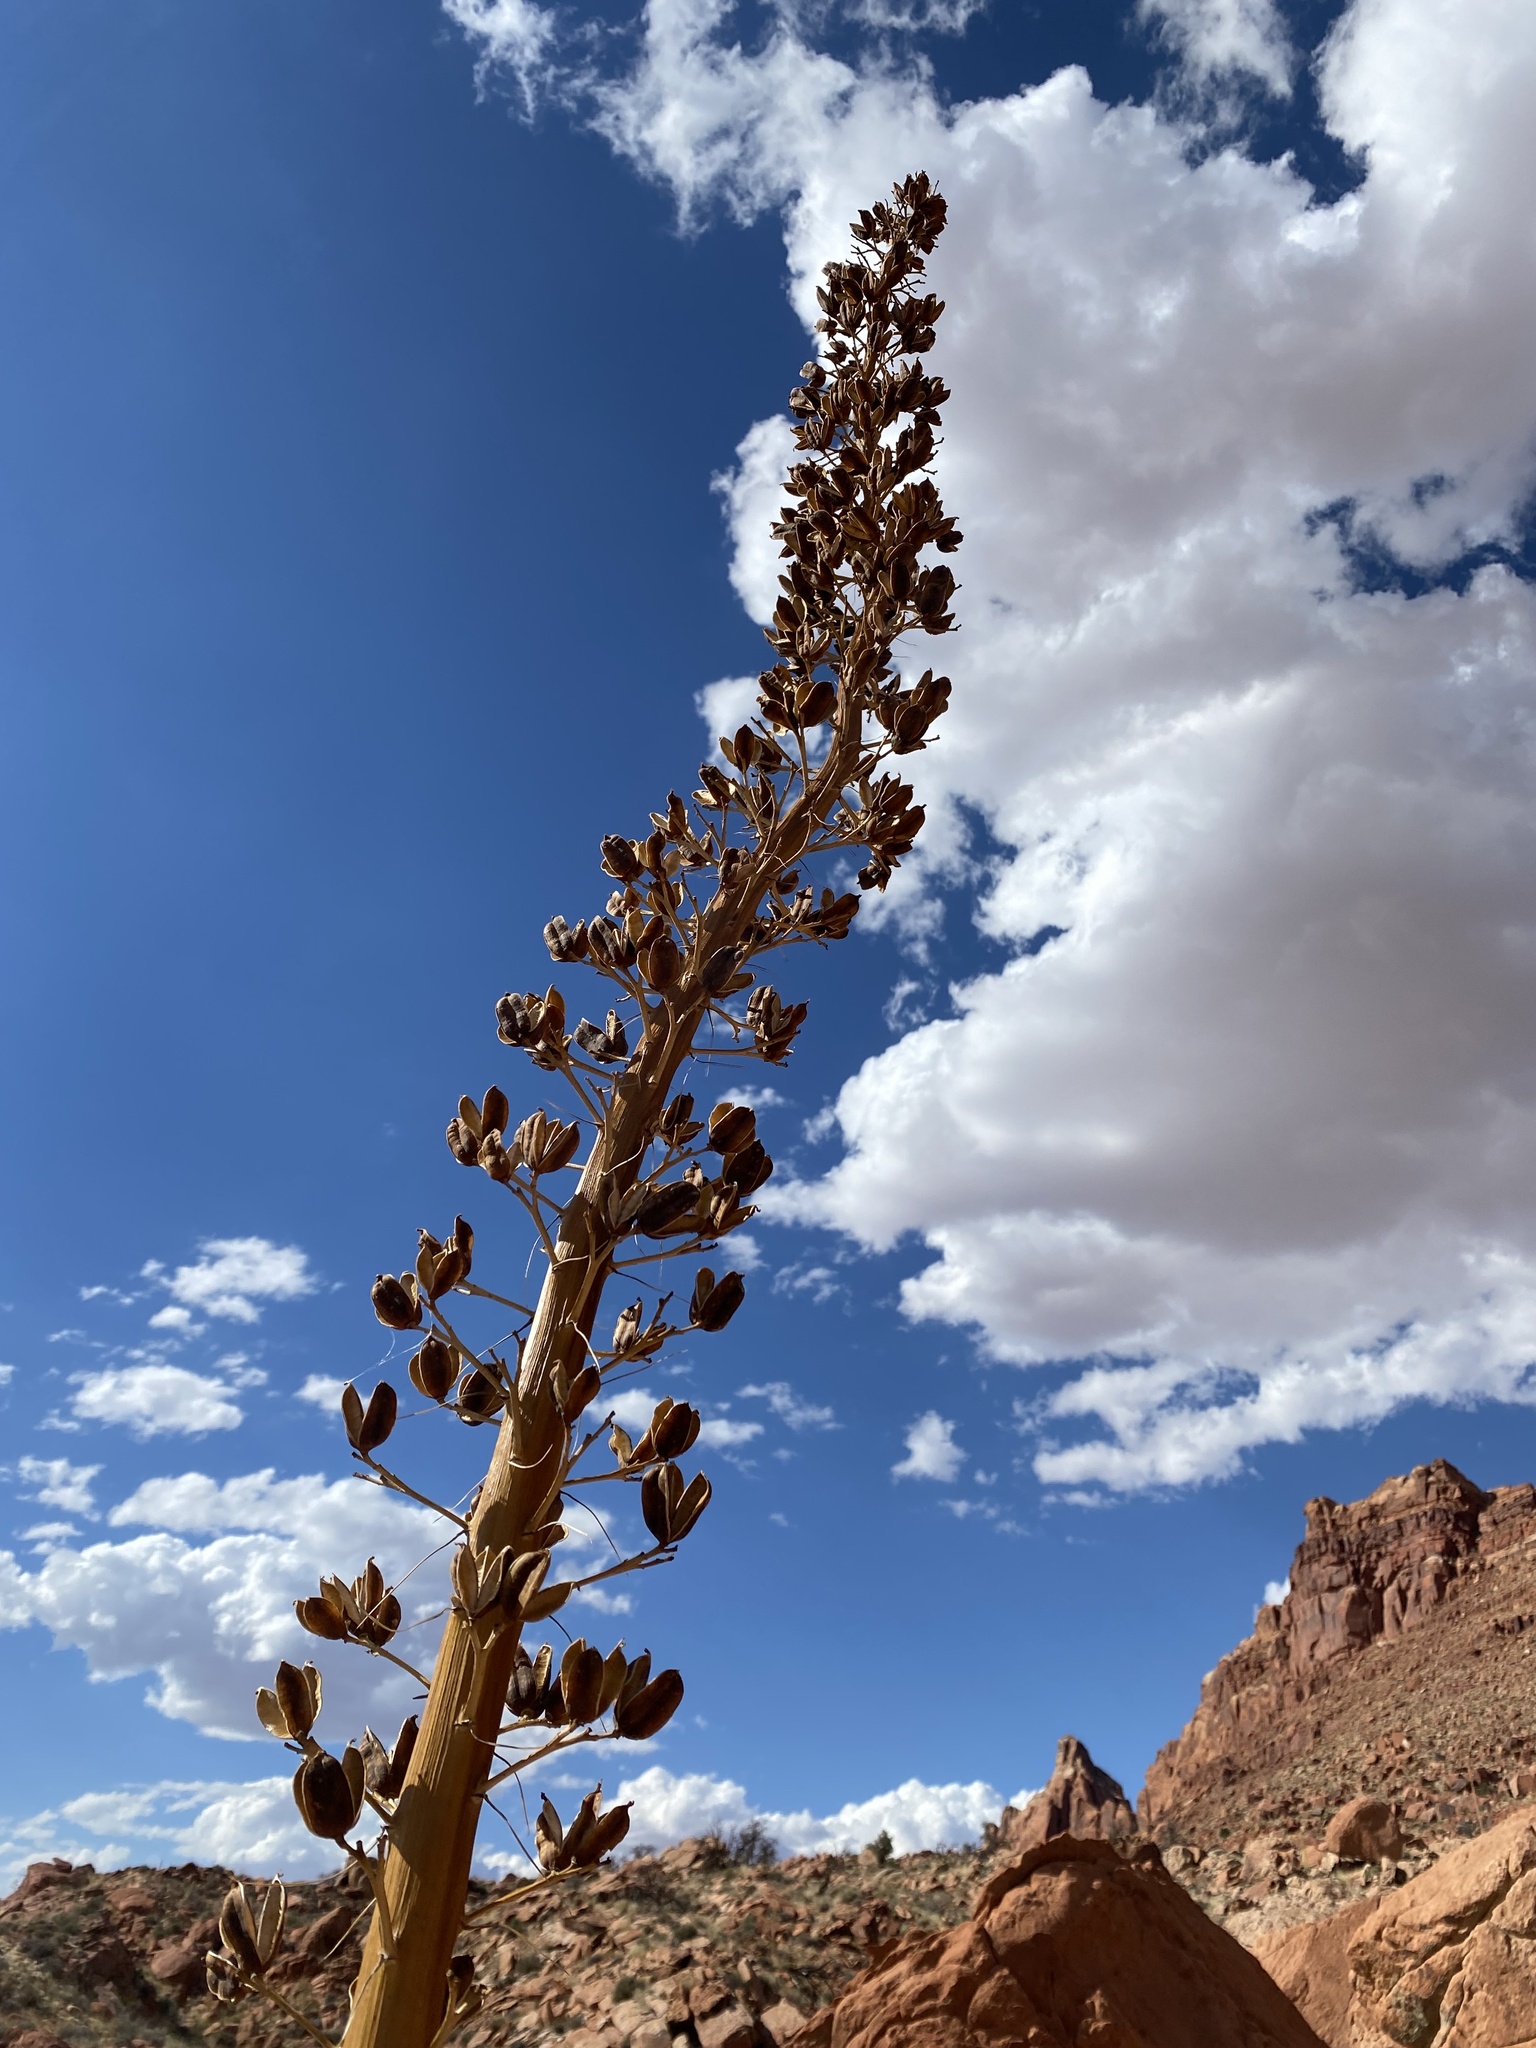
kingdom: Plantae
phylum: Tracheophyta
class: Liliopsida
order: Asparagales
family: Asparagaceae
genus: Agave
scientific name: Agave utahensis
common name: Utah agave
